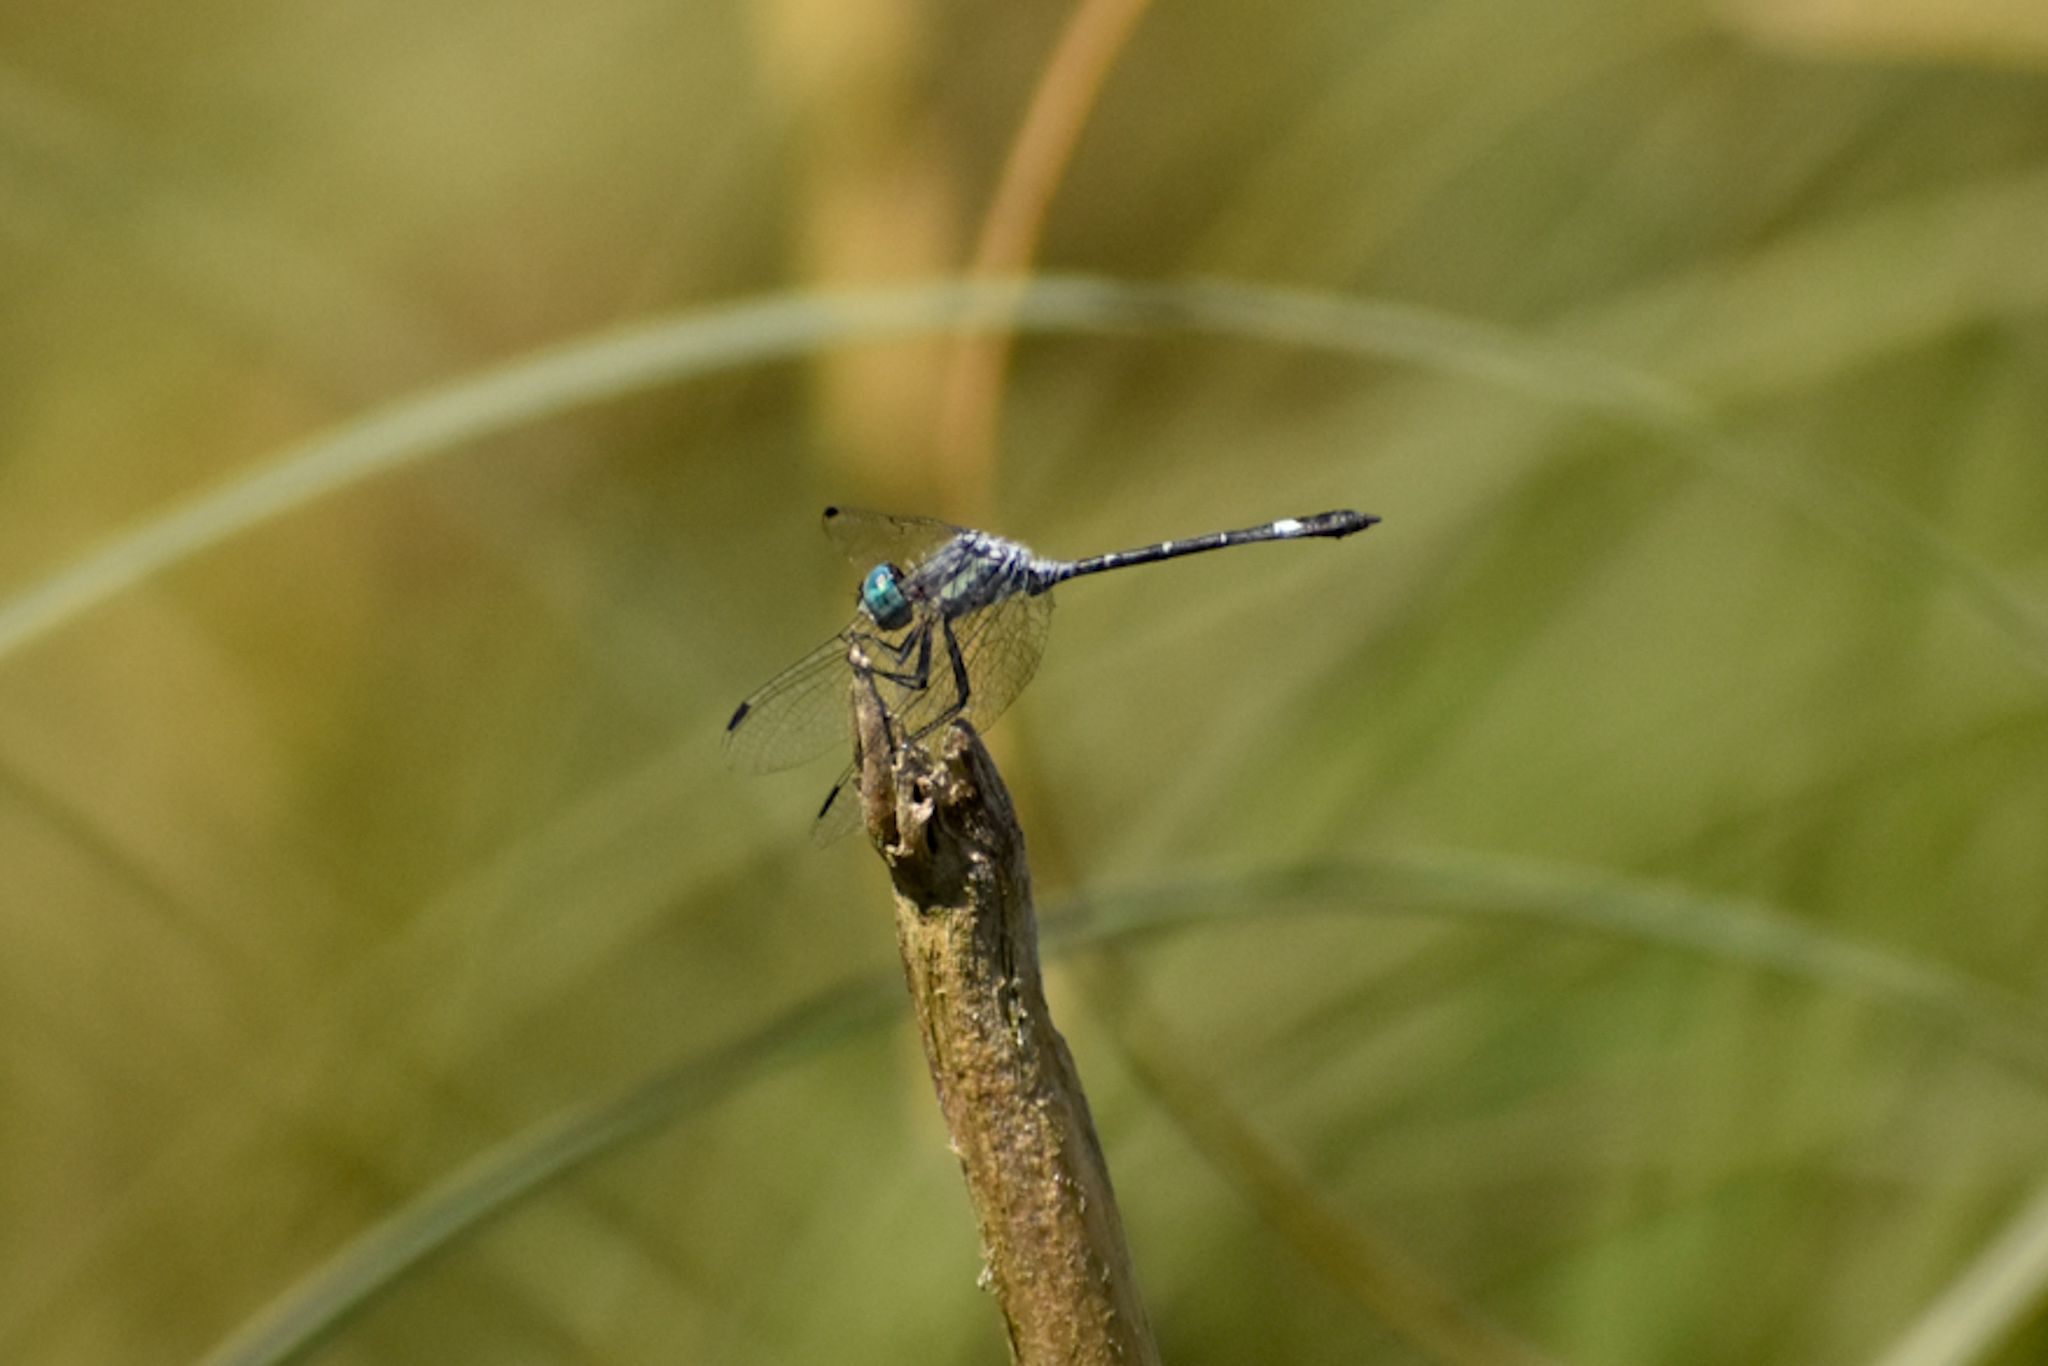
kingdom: Animalia
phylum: Arthropoda
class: Insecta
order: Odonata
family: Libellulidae
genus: Micrathyria
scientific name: Micrathyria hypodidyma
